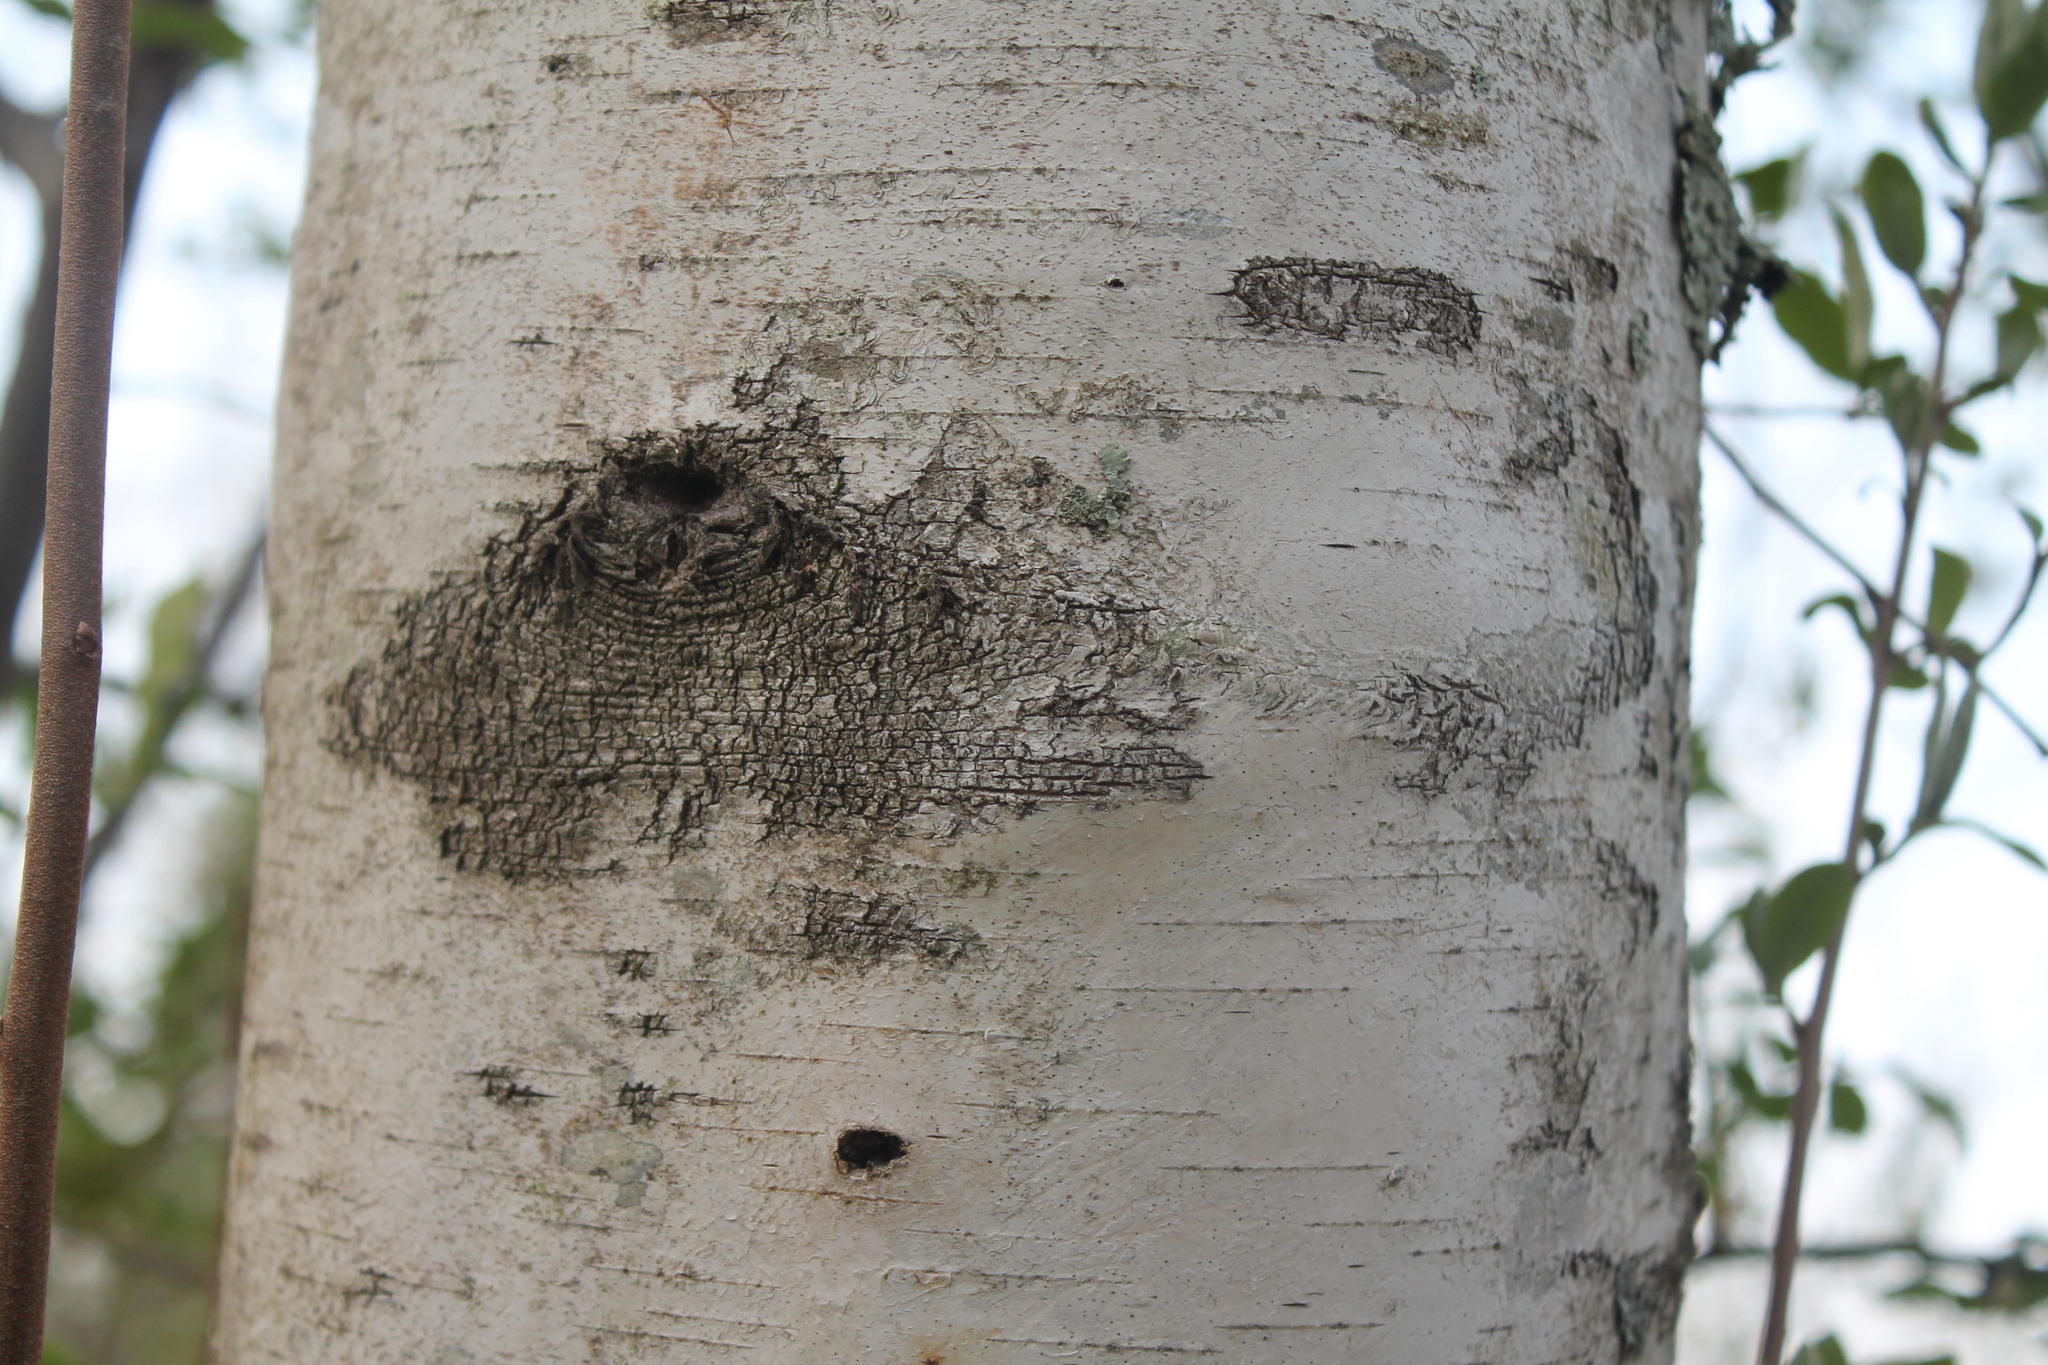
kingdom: Plantae
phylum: Tracheophyta
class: Magnoliopsida
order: Fagales
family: Betulaceae
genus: Betula
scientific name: Betula populifolia
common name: Fire birch
